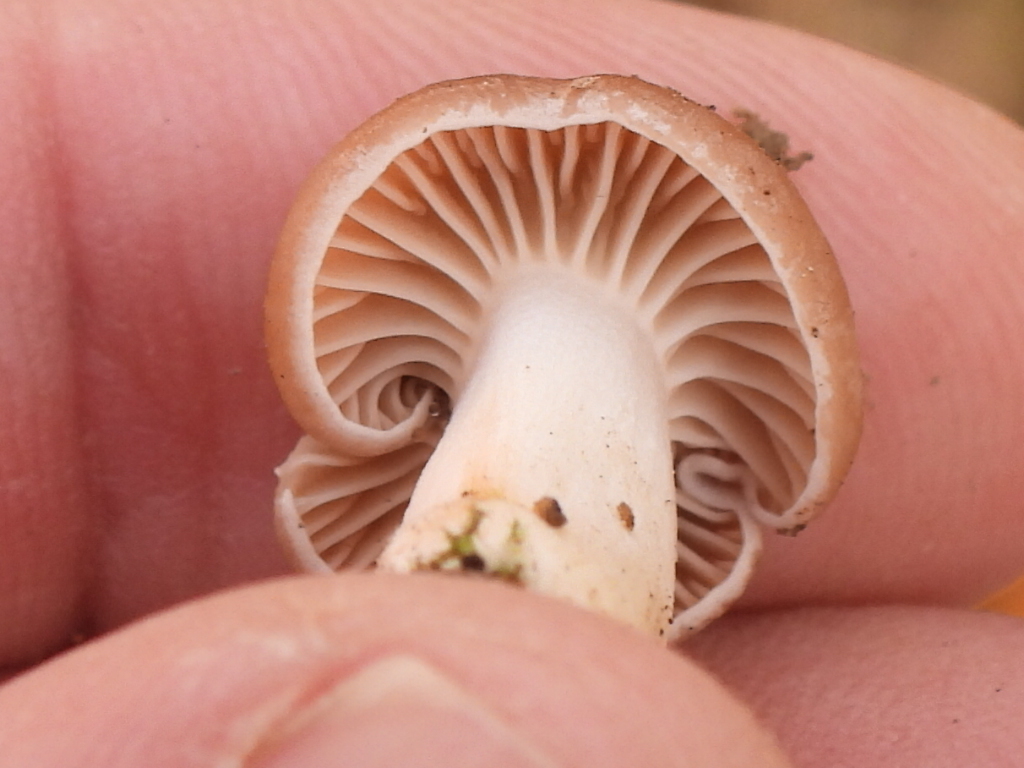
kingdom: Fungi
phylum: Basidiomycota
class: Agaricomycetes
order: Agaricales
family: Hygrophoraceae
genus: Cuphophyllus
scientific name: Cuphophyllus colemannianus
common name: Toasted waxcap
